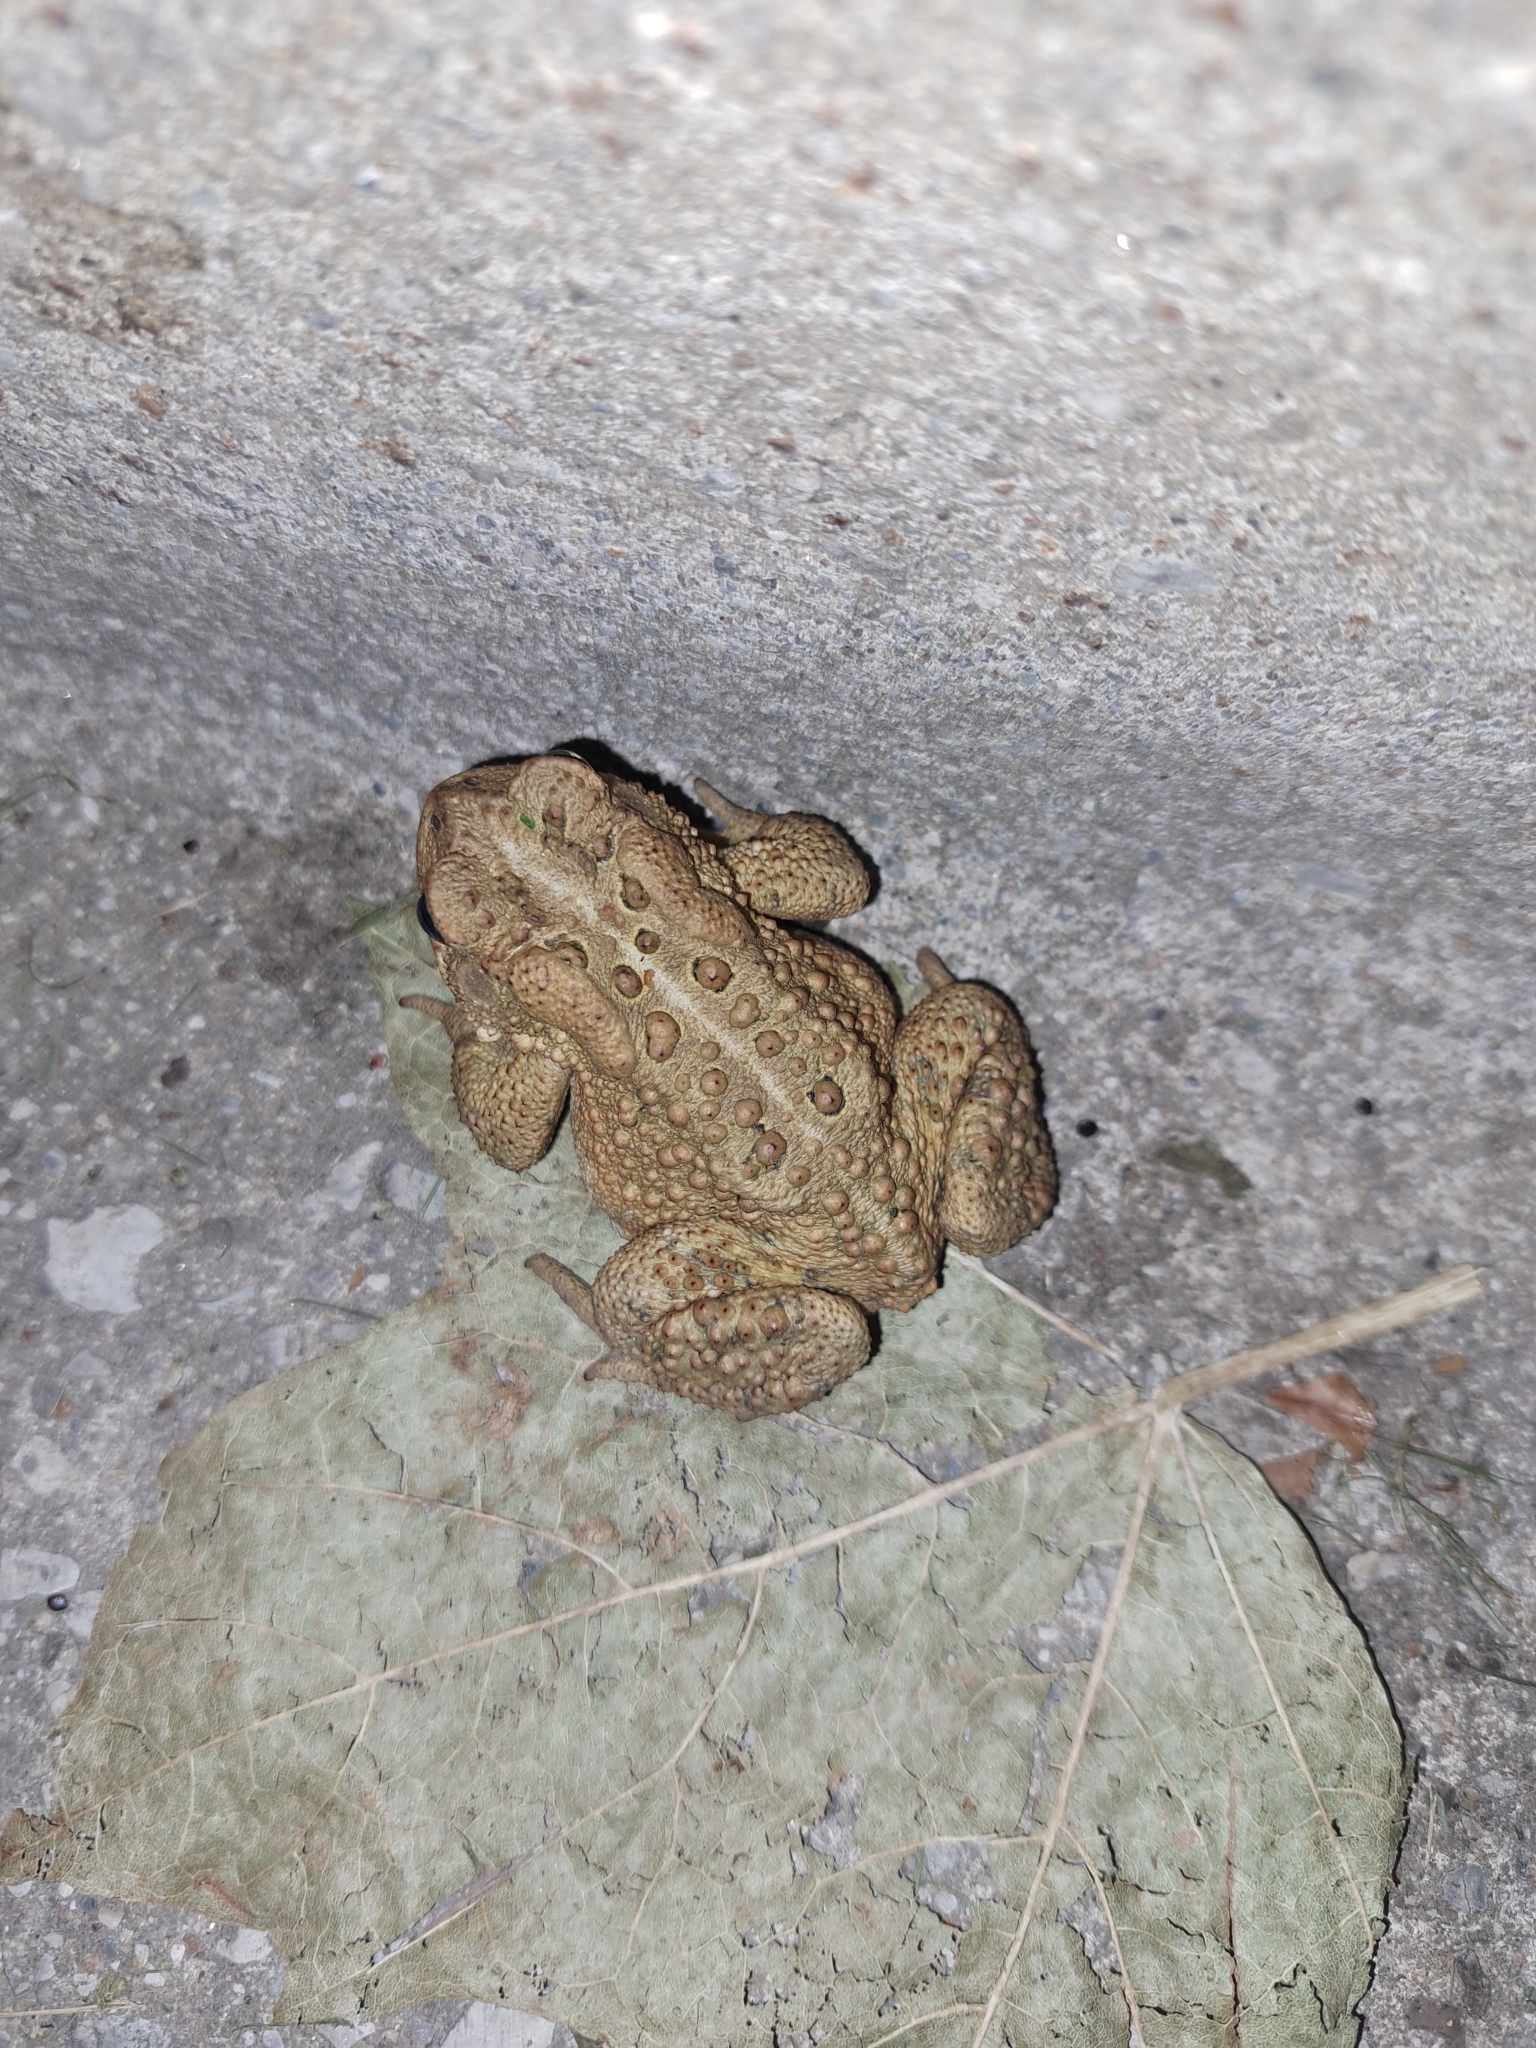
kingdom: Animalia
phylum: Chordata
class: Amphibia
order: Anura
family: Bufonidae
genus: Anaxyrus
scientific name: Anaxyrus americanus
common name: American toad
